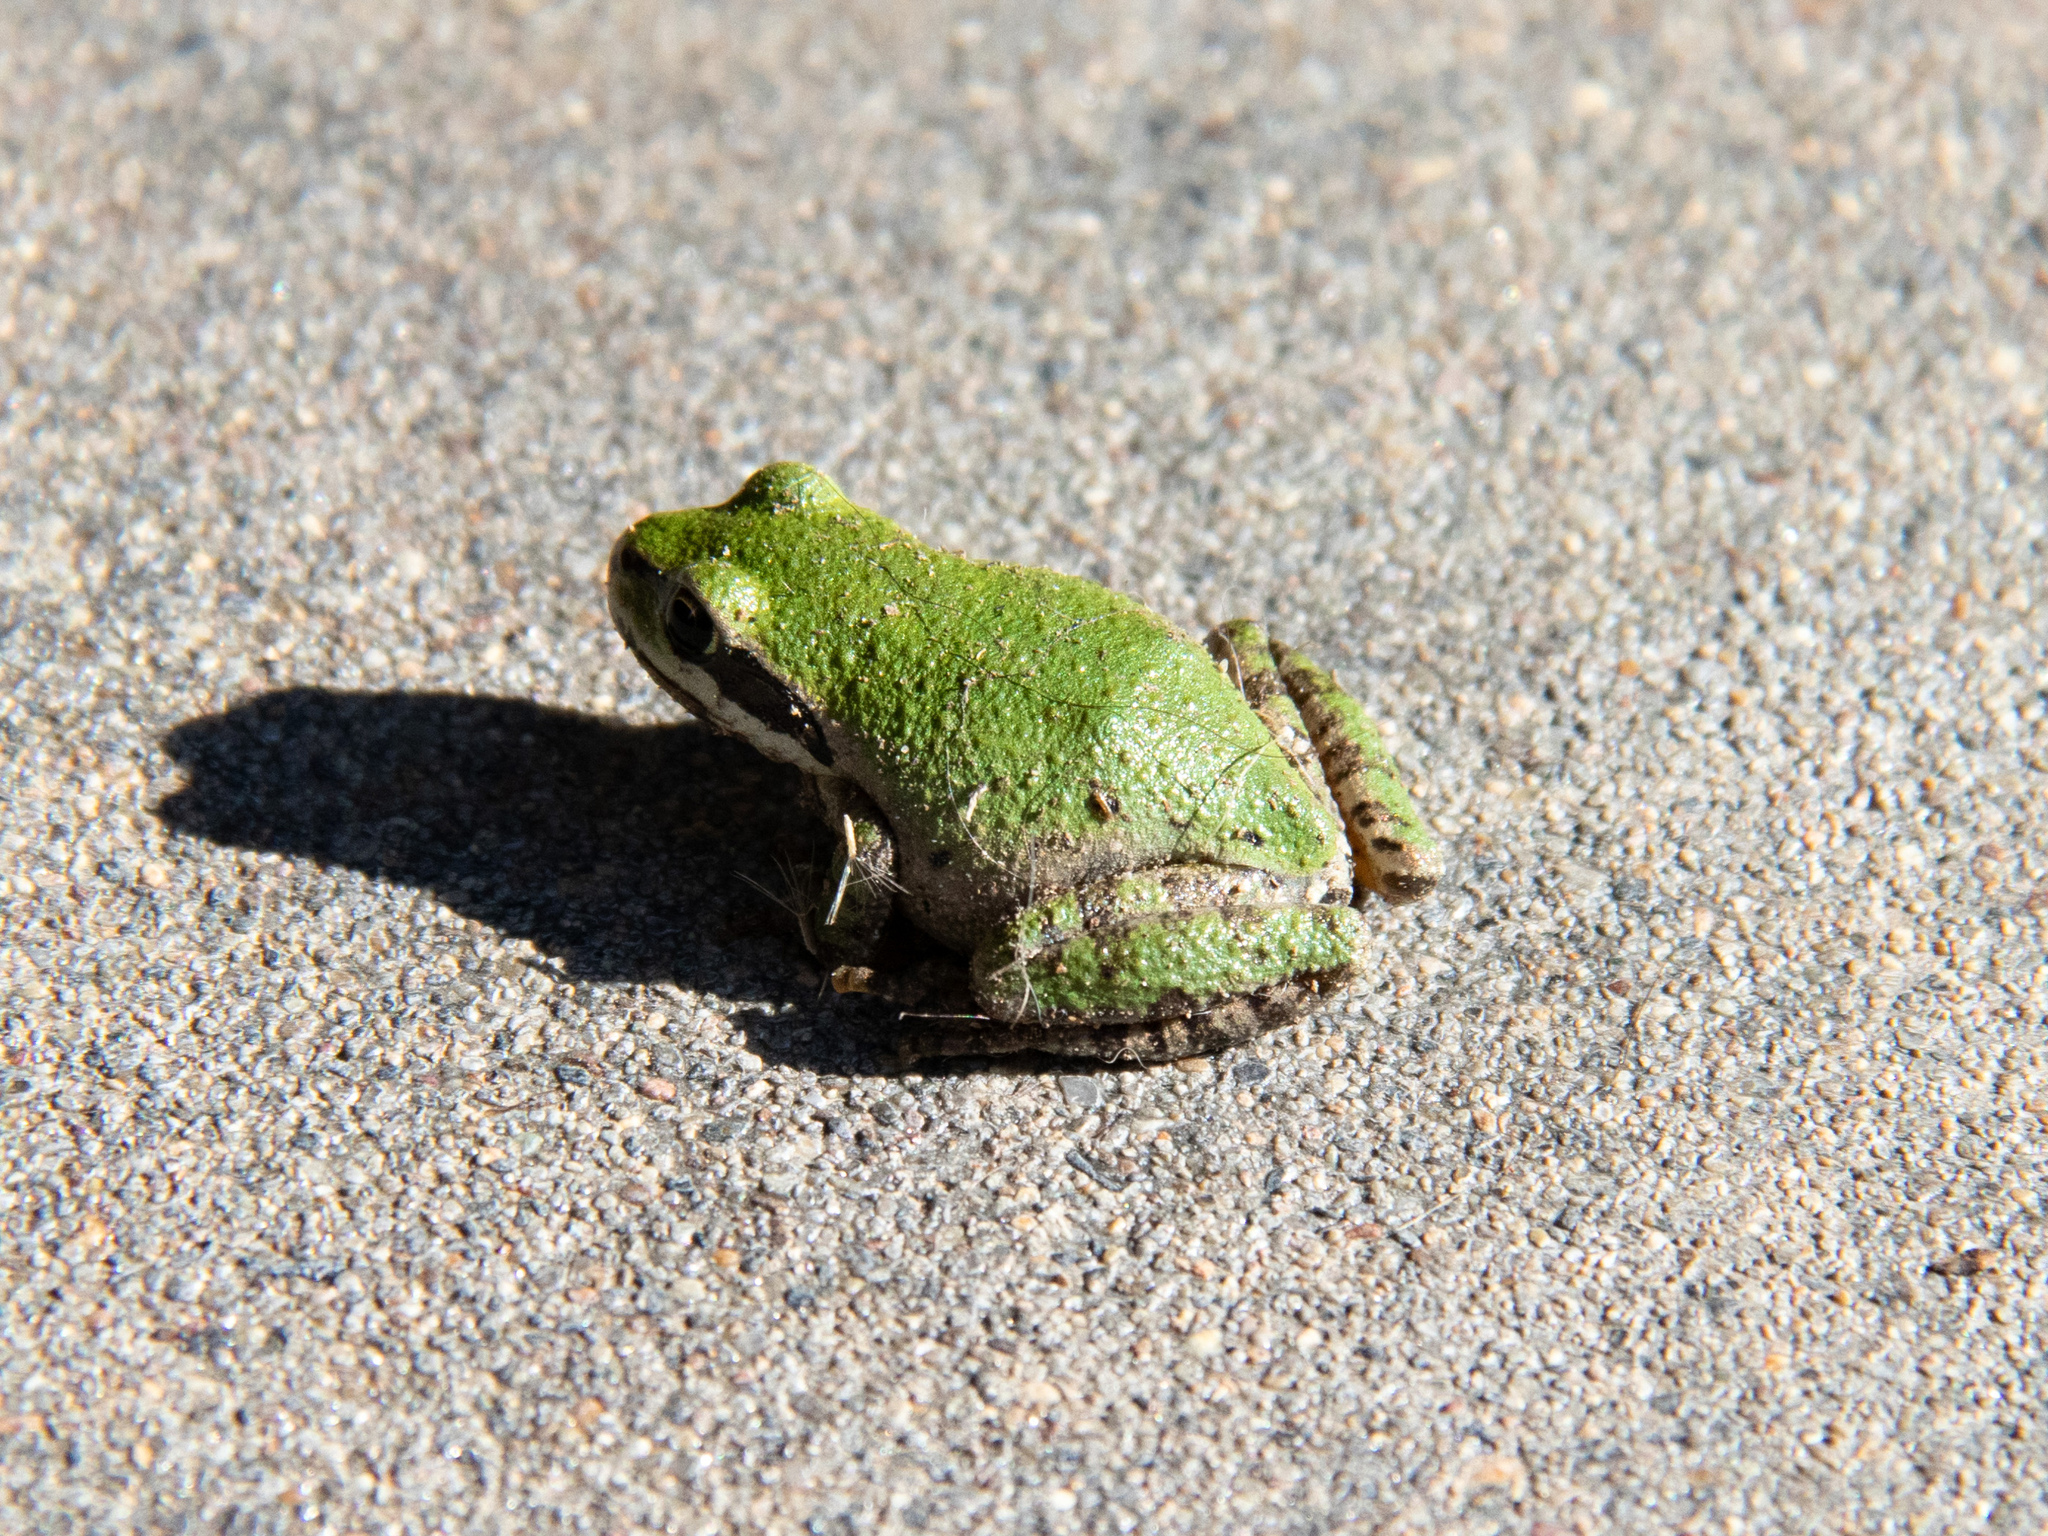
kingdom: Animalia
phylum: Chordata
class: Amphibia
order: Anura
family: Hylidae
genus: Pseudacris
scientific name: Pseudacris regilla
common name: Pacific chorus frog
